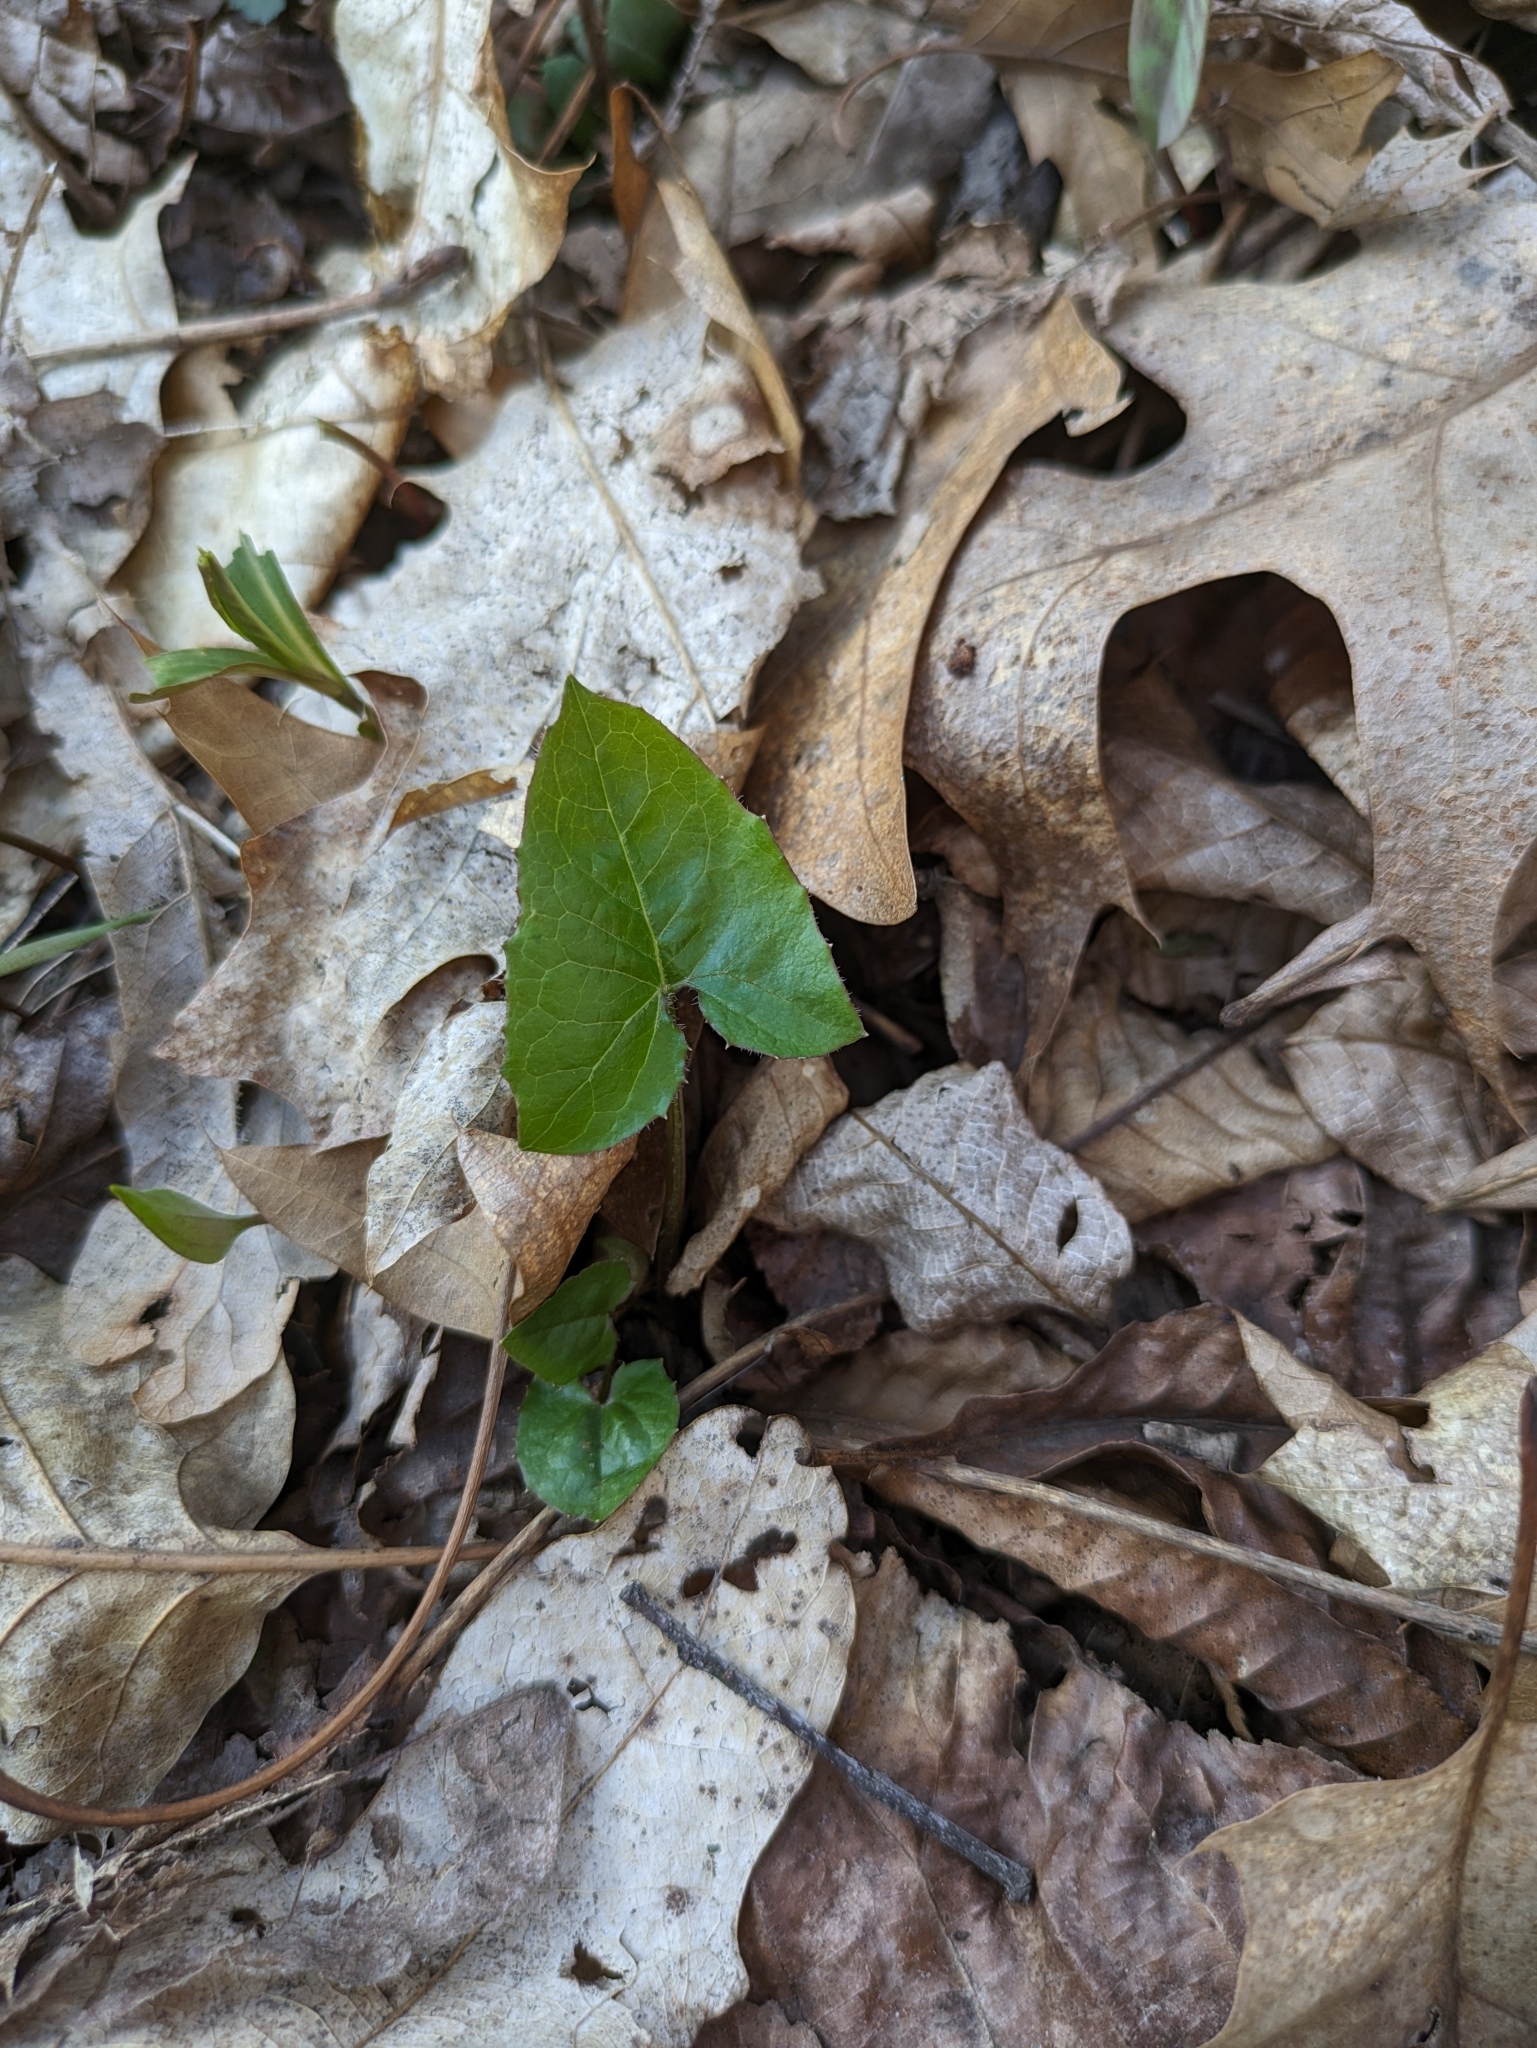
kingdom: Plantae
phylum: Tracheophyta
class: Magnoliopsida
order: Asterales
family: Asteraceae
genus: Nabalus
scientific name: Nabalus albus
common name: White rattlesnakeroot
